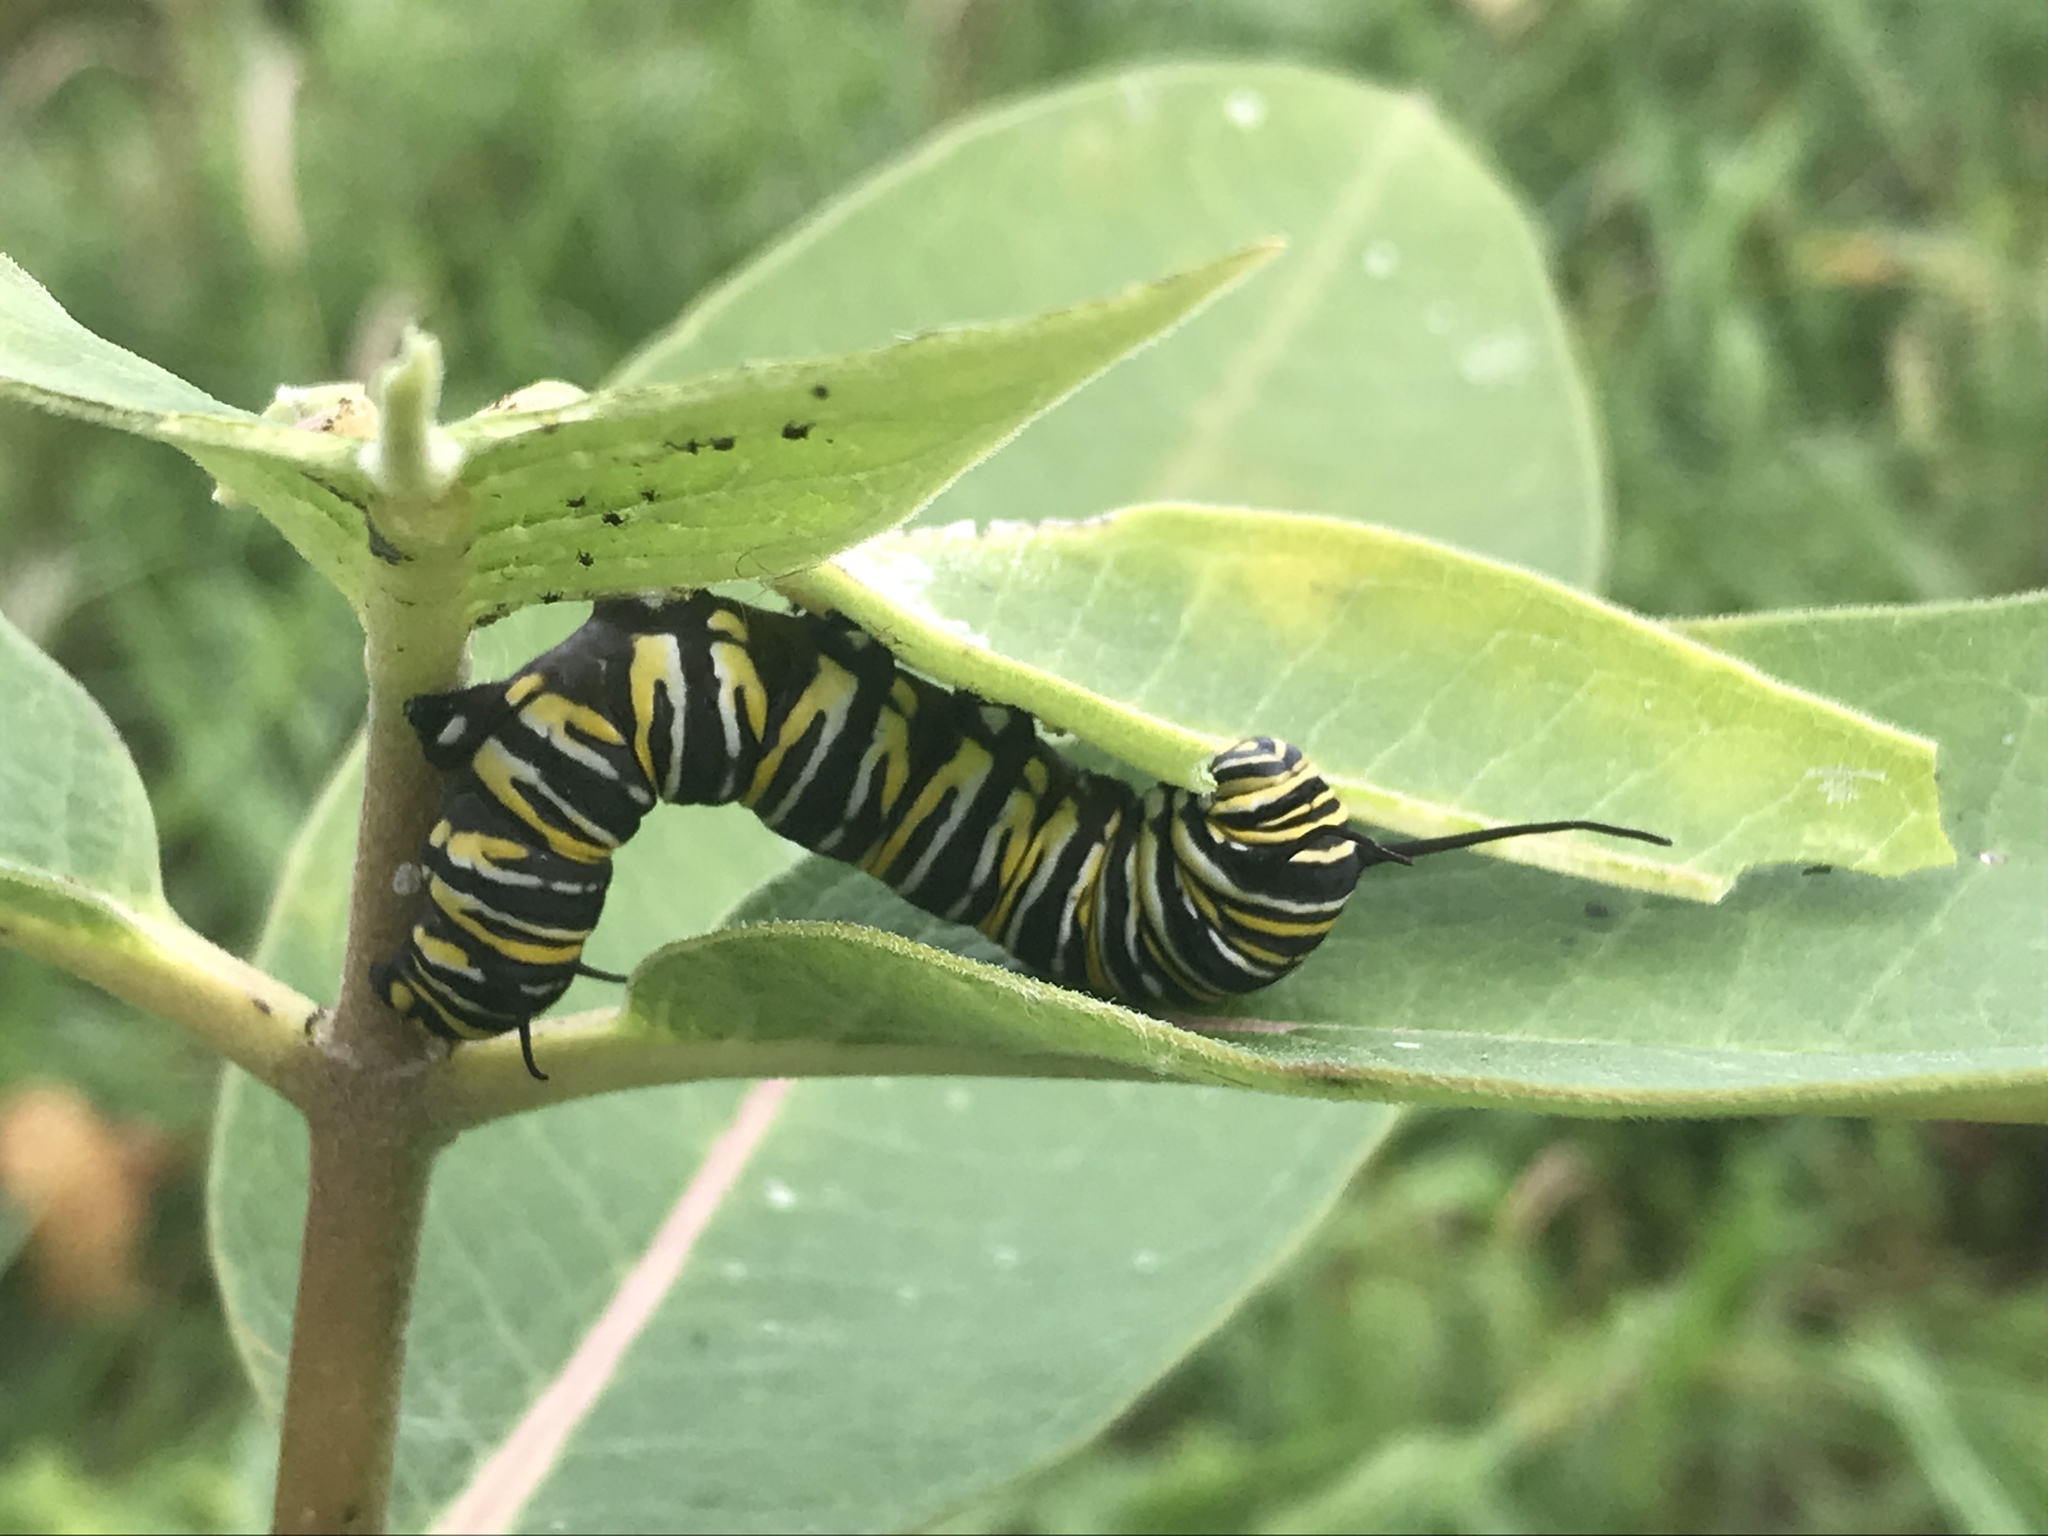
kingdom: Animalia
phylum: Arthropoda
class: Insecta
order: Lepidoptera
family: Nymphalidae
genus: Danaus
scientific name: Danaus plexippus
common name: Monarch
